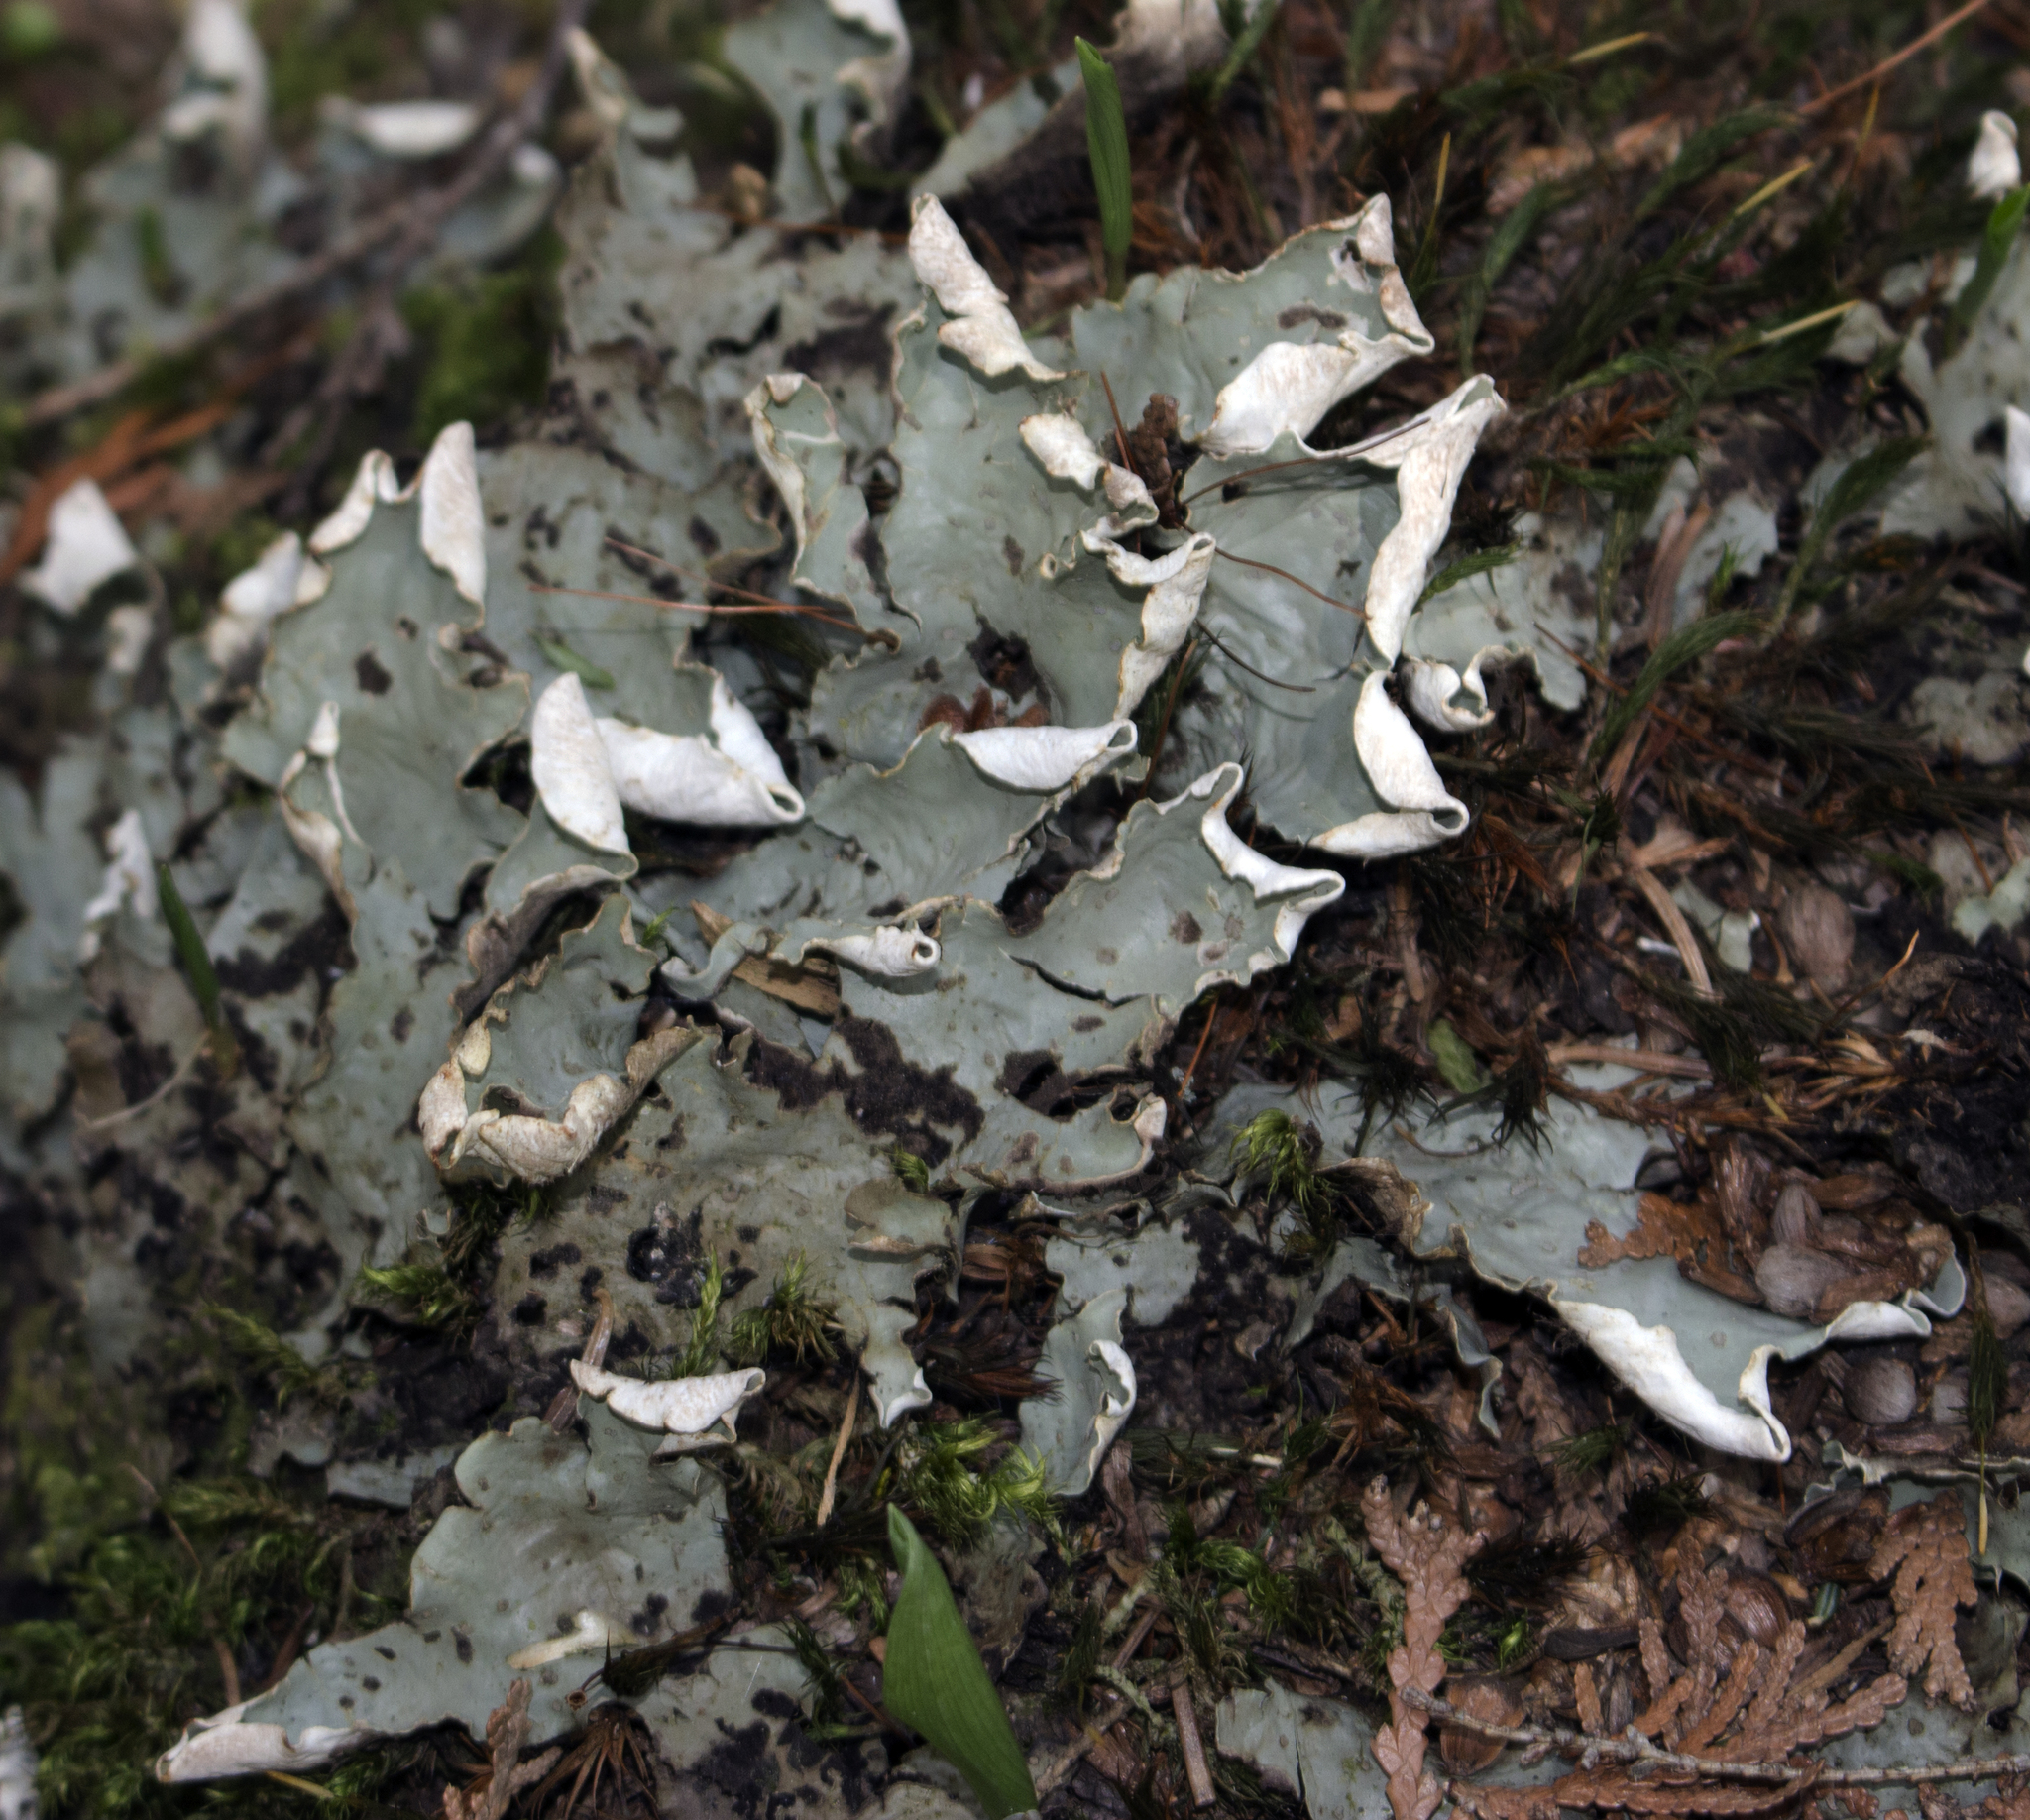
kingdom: Fungi
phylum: Ascomycota
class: Lecanoromycetes
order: Peltigerales
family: Peltigeraceae
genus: Peltigera
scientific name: Peltigera aphthosa
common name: Common freckle pelt lichen
